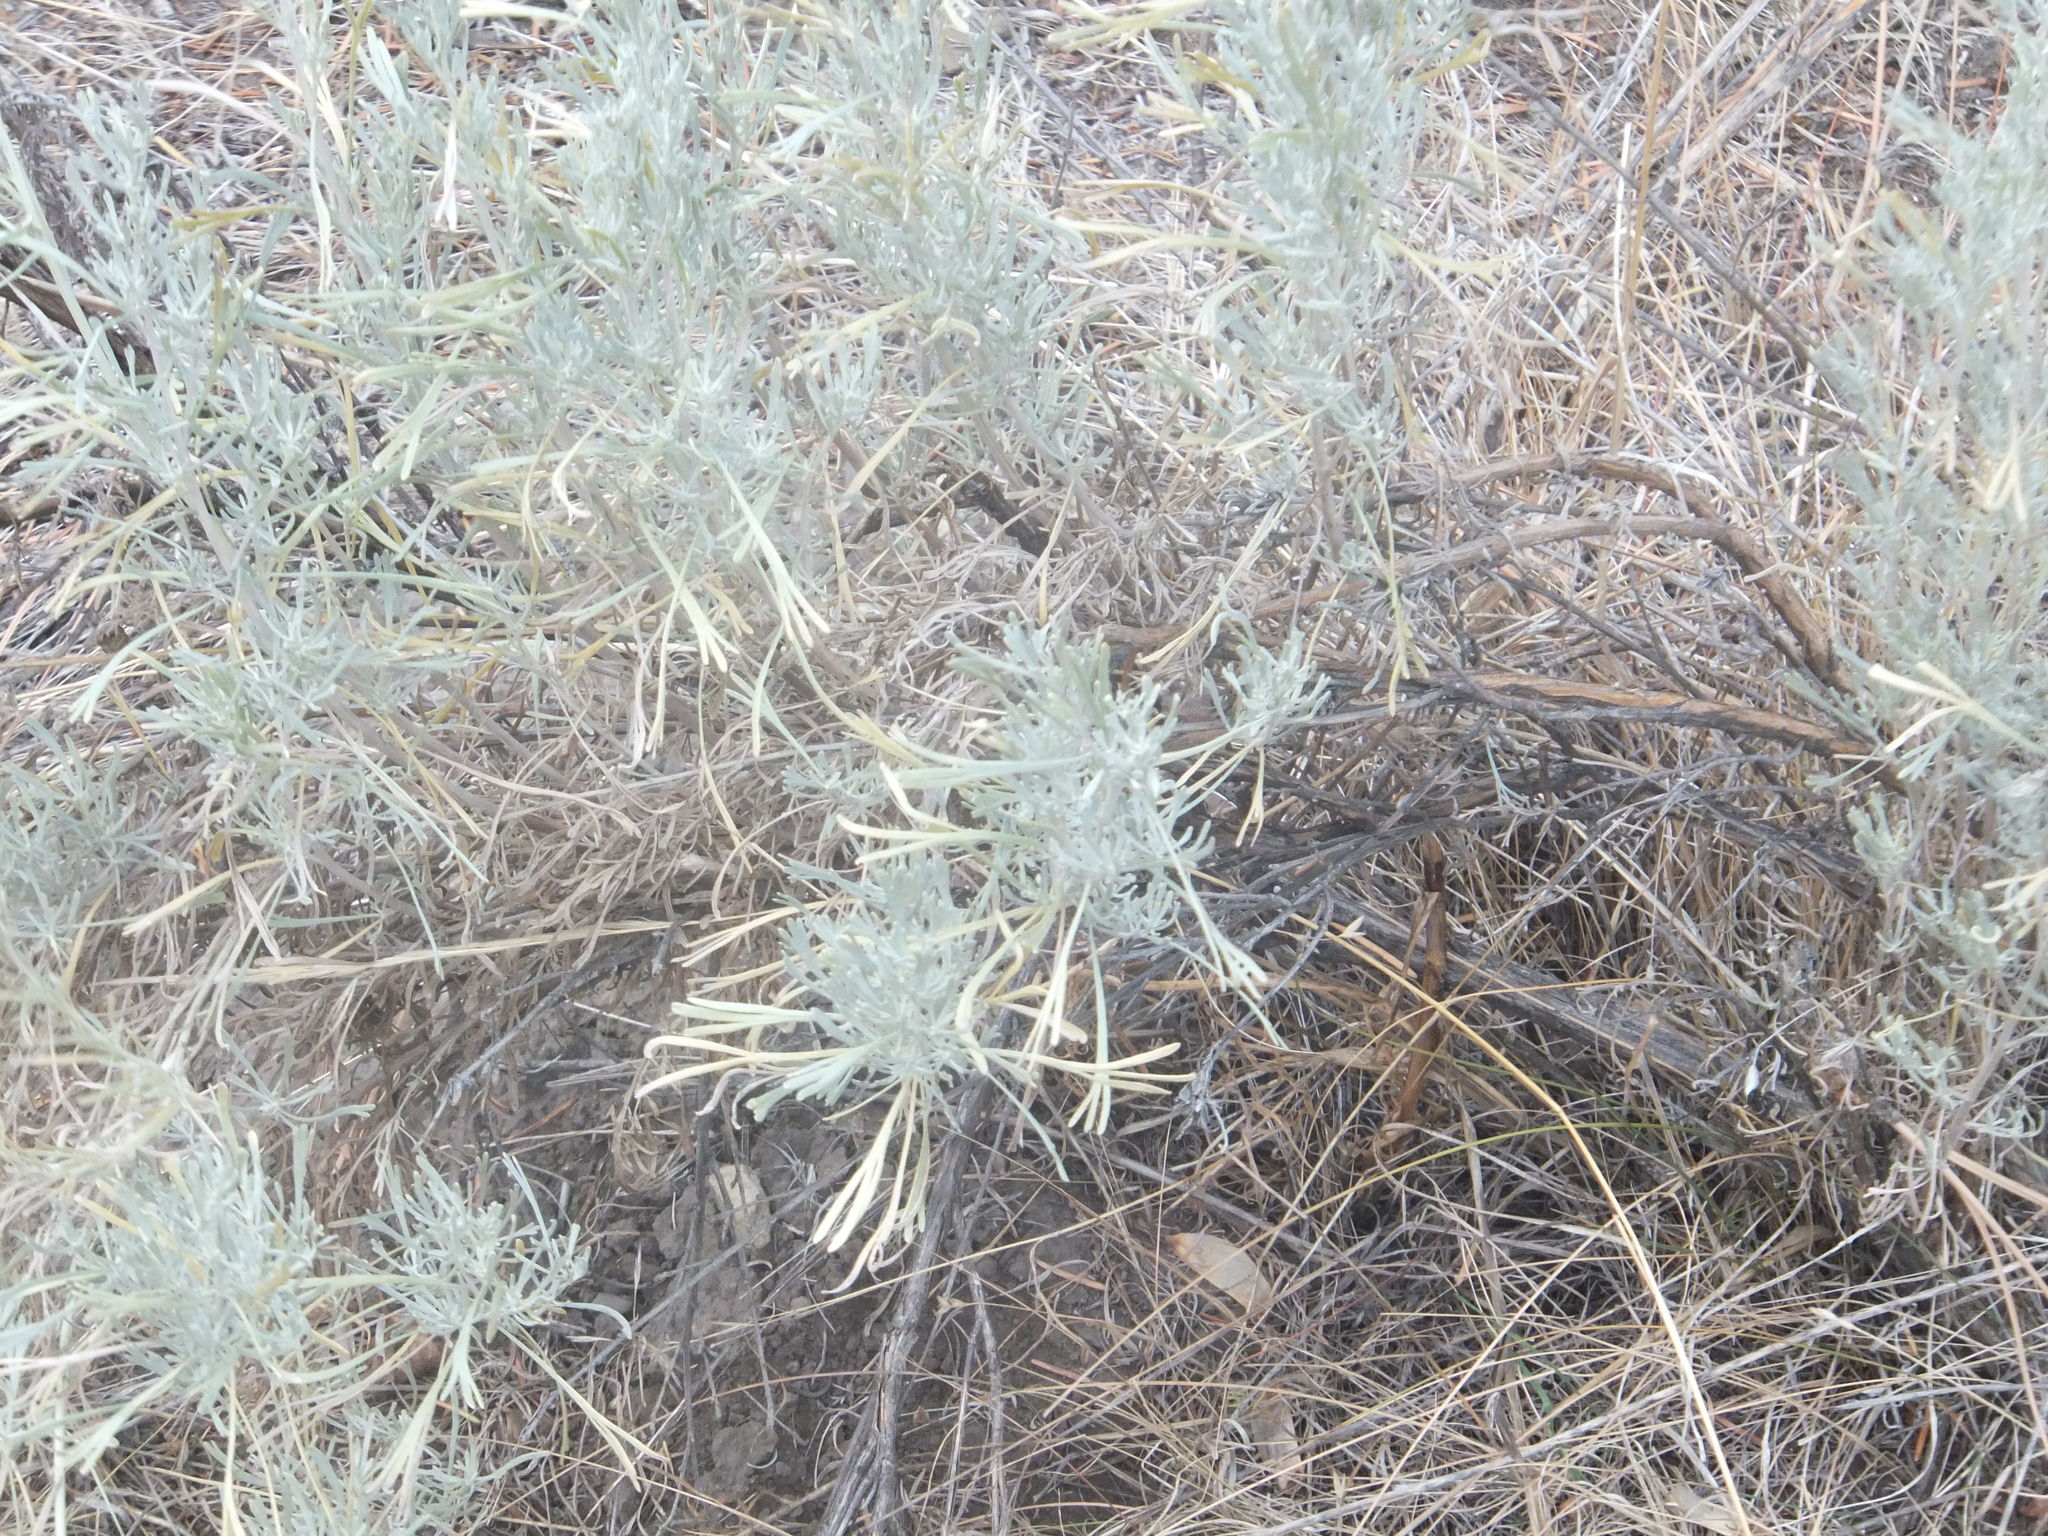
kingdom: Plantae
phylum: Tracheophyta
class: Magnoliopsida
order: Asterales
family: Asteraceae
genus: Artemisia
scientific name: Artemisia tripartita
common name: Three-tip sagebrush
